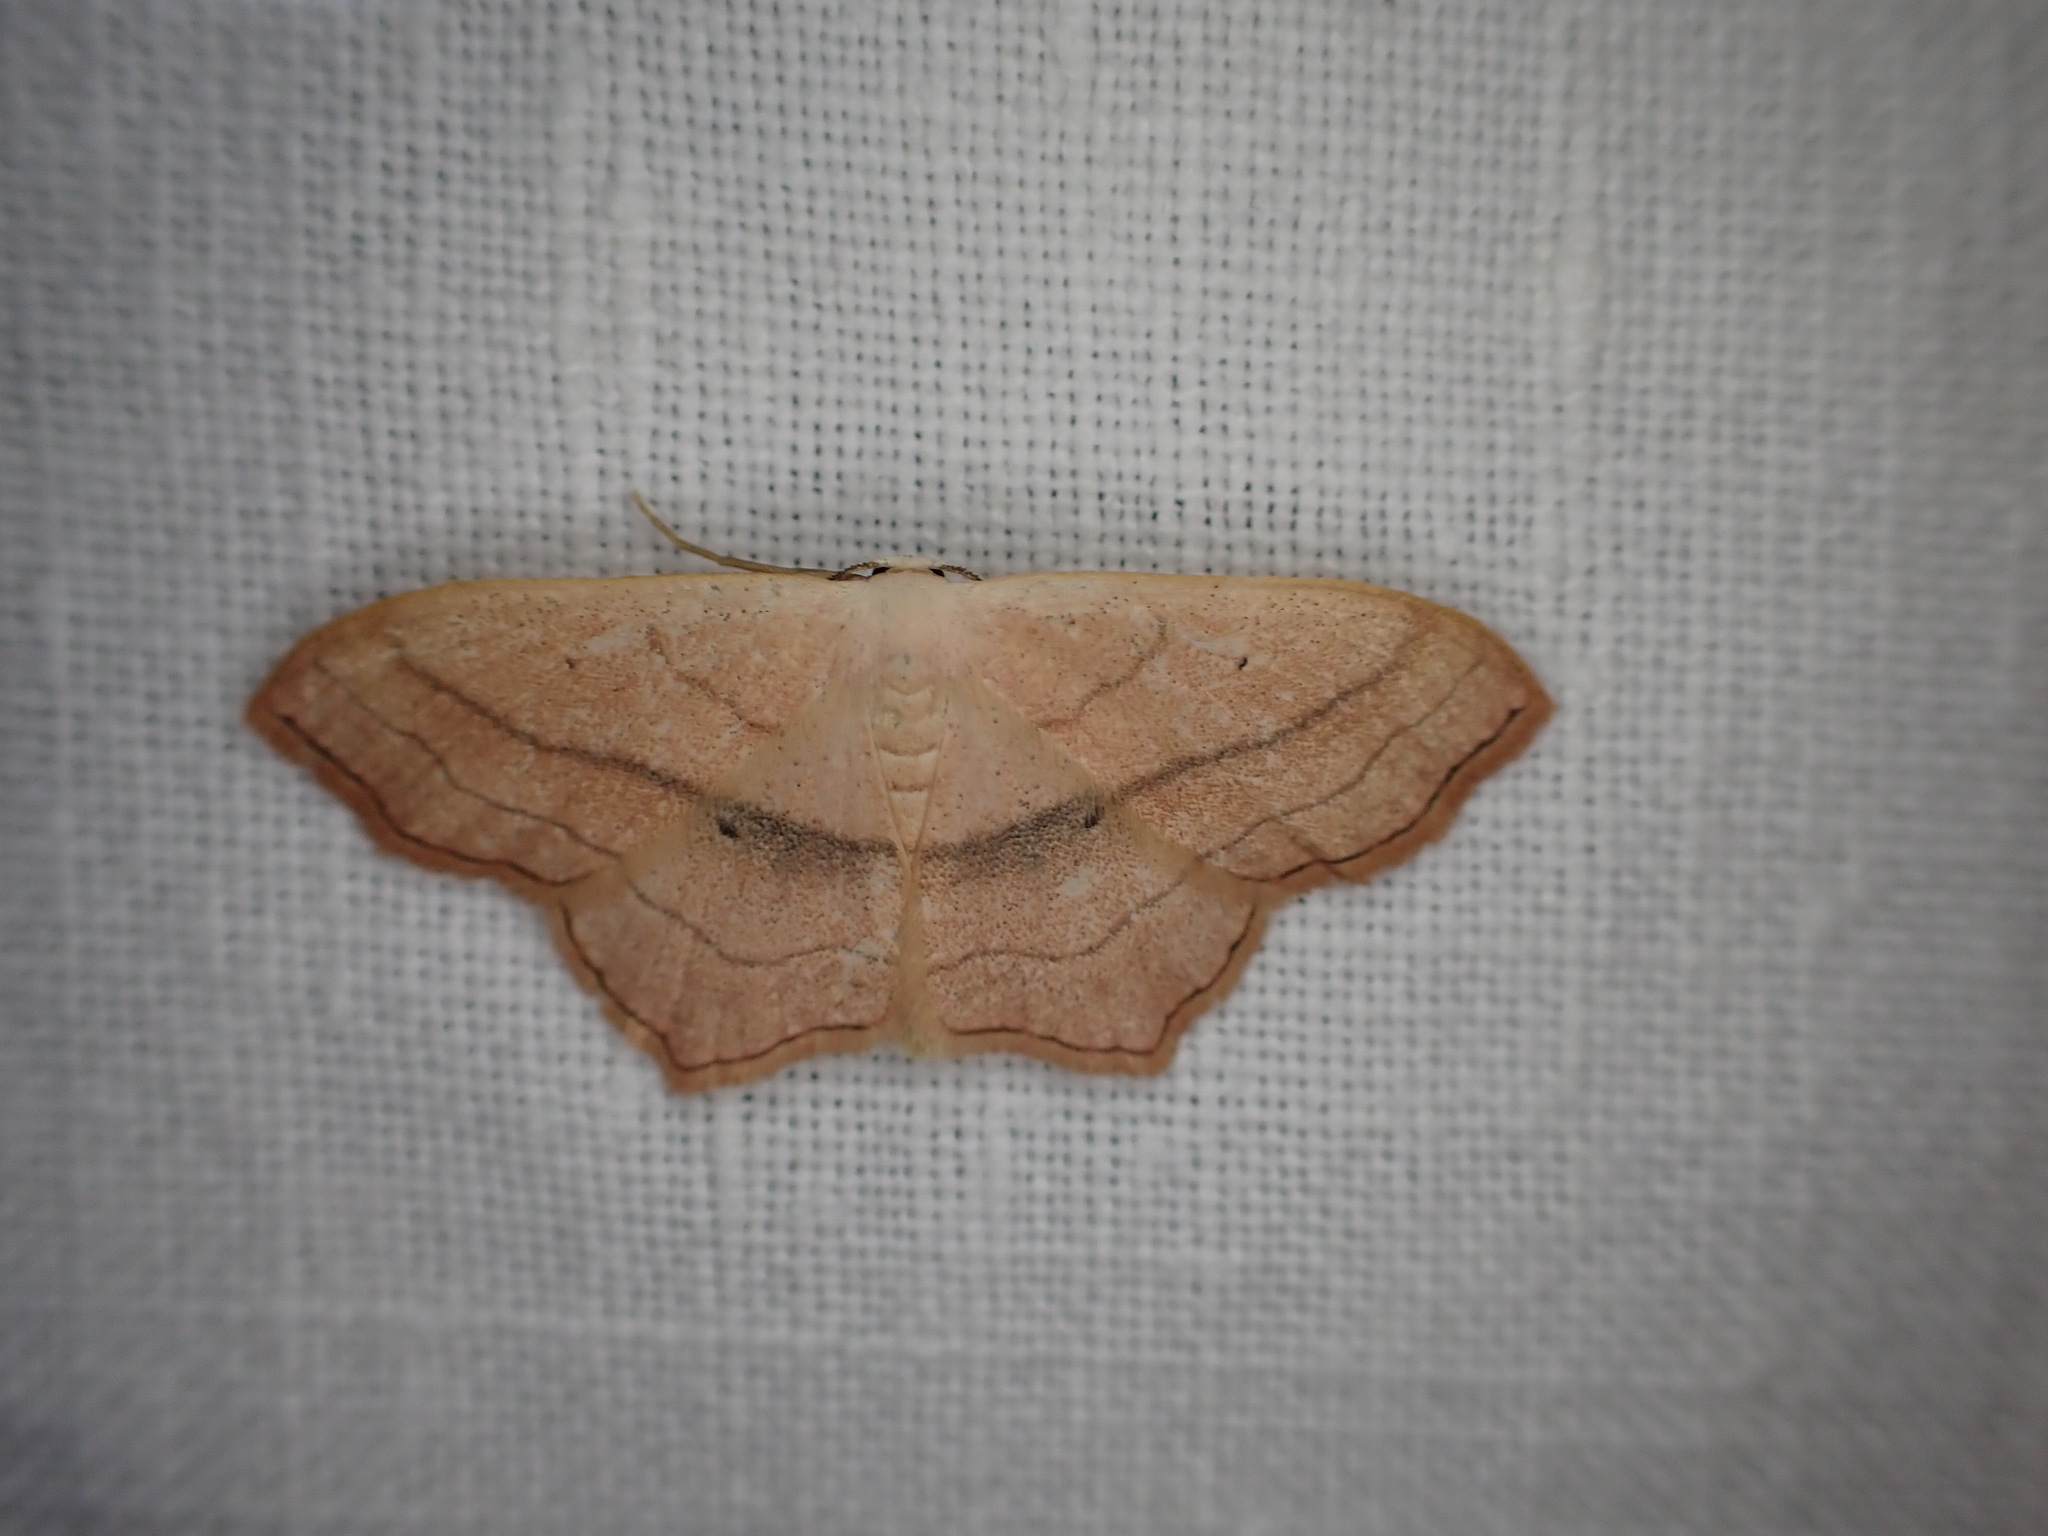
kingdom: Animalia
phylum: Arthropoda
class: Insecta
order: Lepidoptera
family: Geometridae
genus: Scopula
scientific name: Scopula imitaria
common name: Small blood-vein
